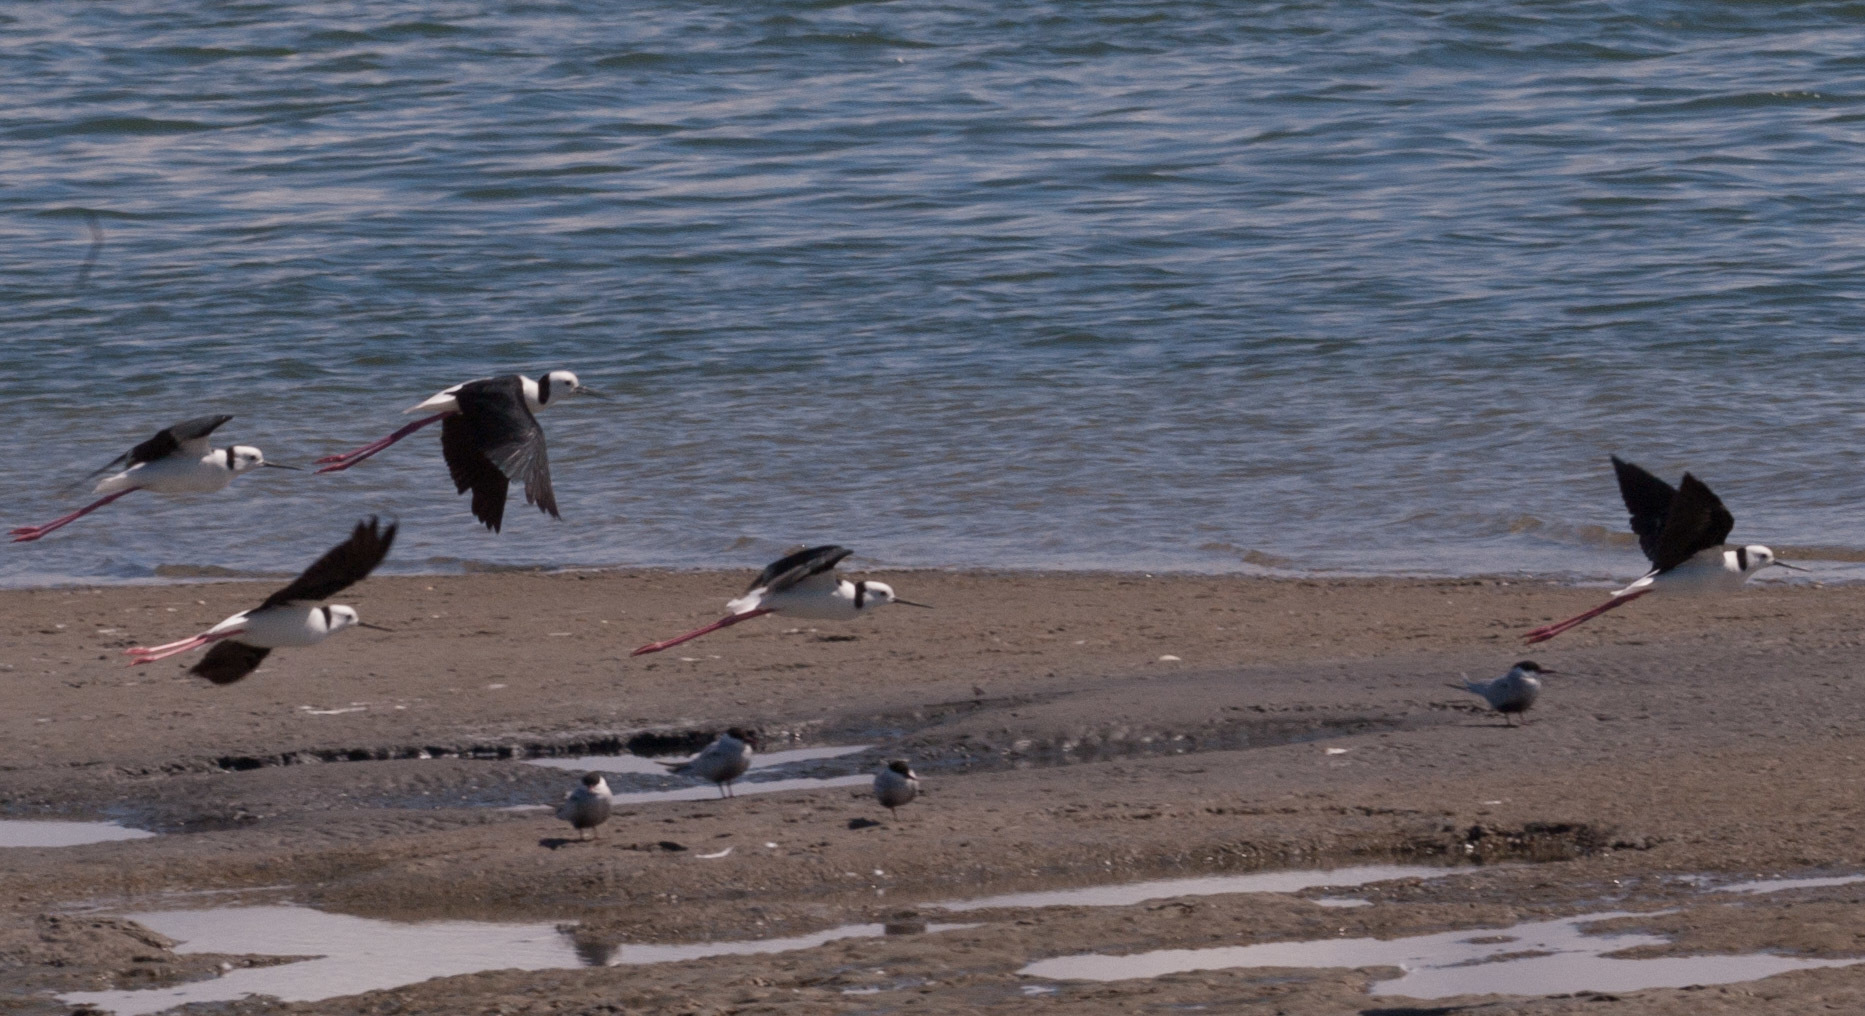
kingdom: Animalia
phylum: Chordata
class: Aves
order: Charadriiformes
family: Recurvirostridae
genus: Himantopus
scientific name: Himantopus leucocephalus
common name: White-headed stilt
